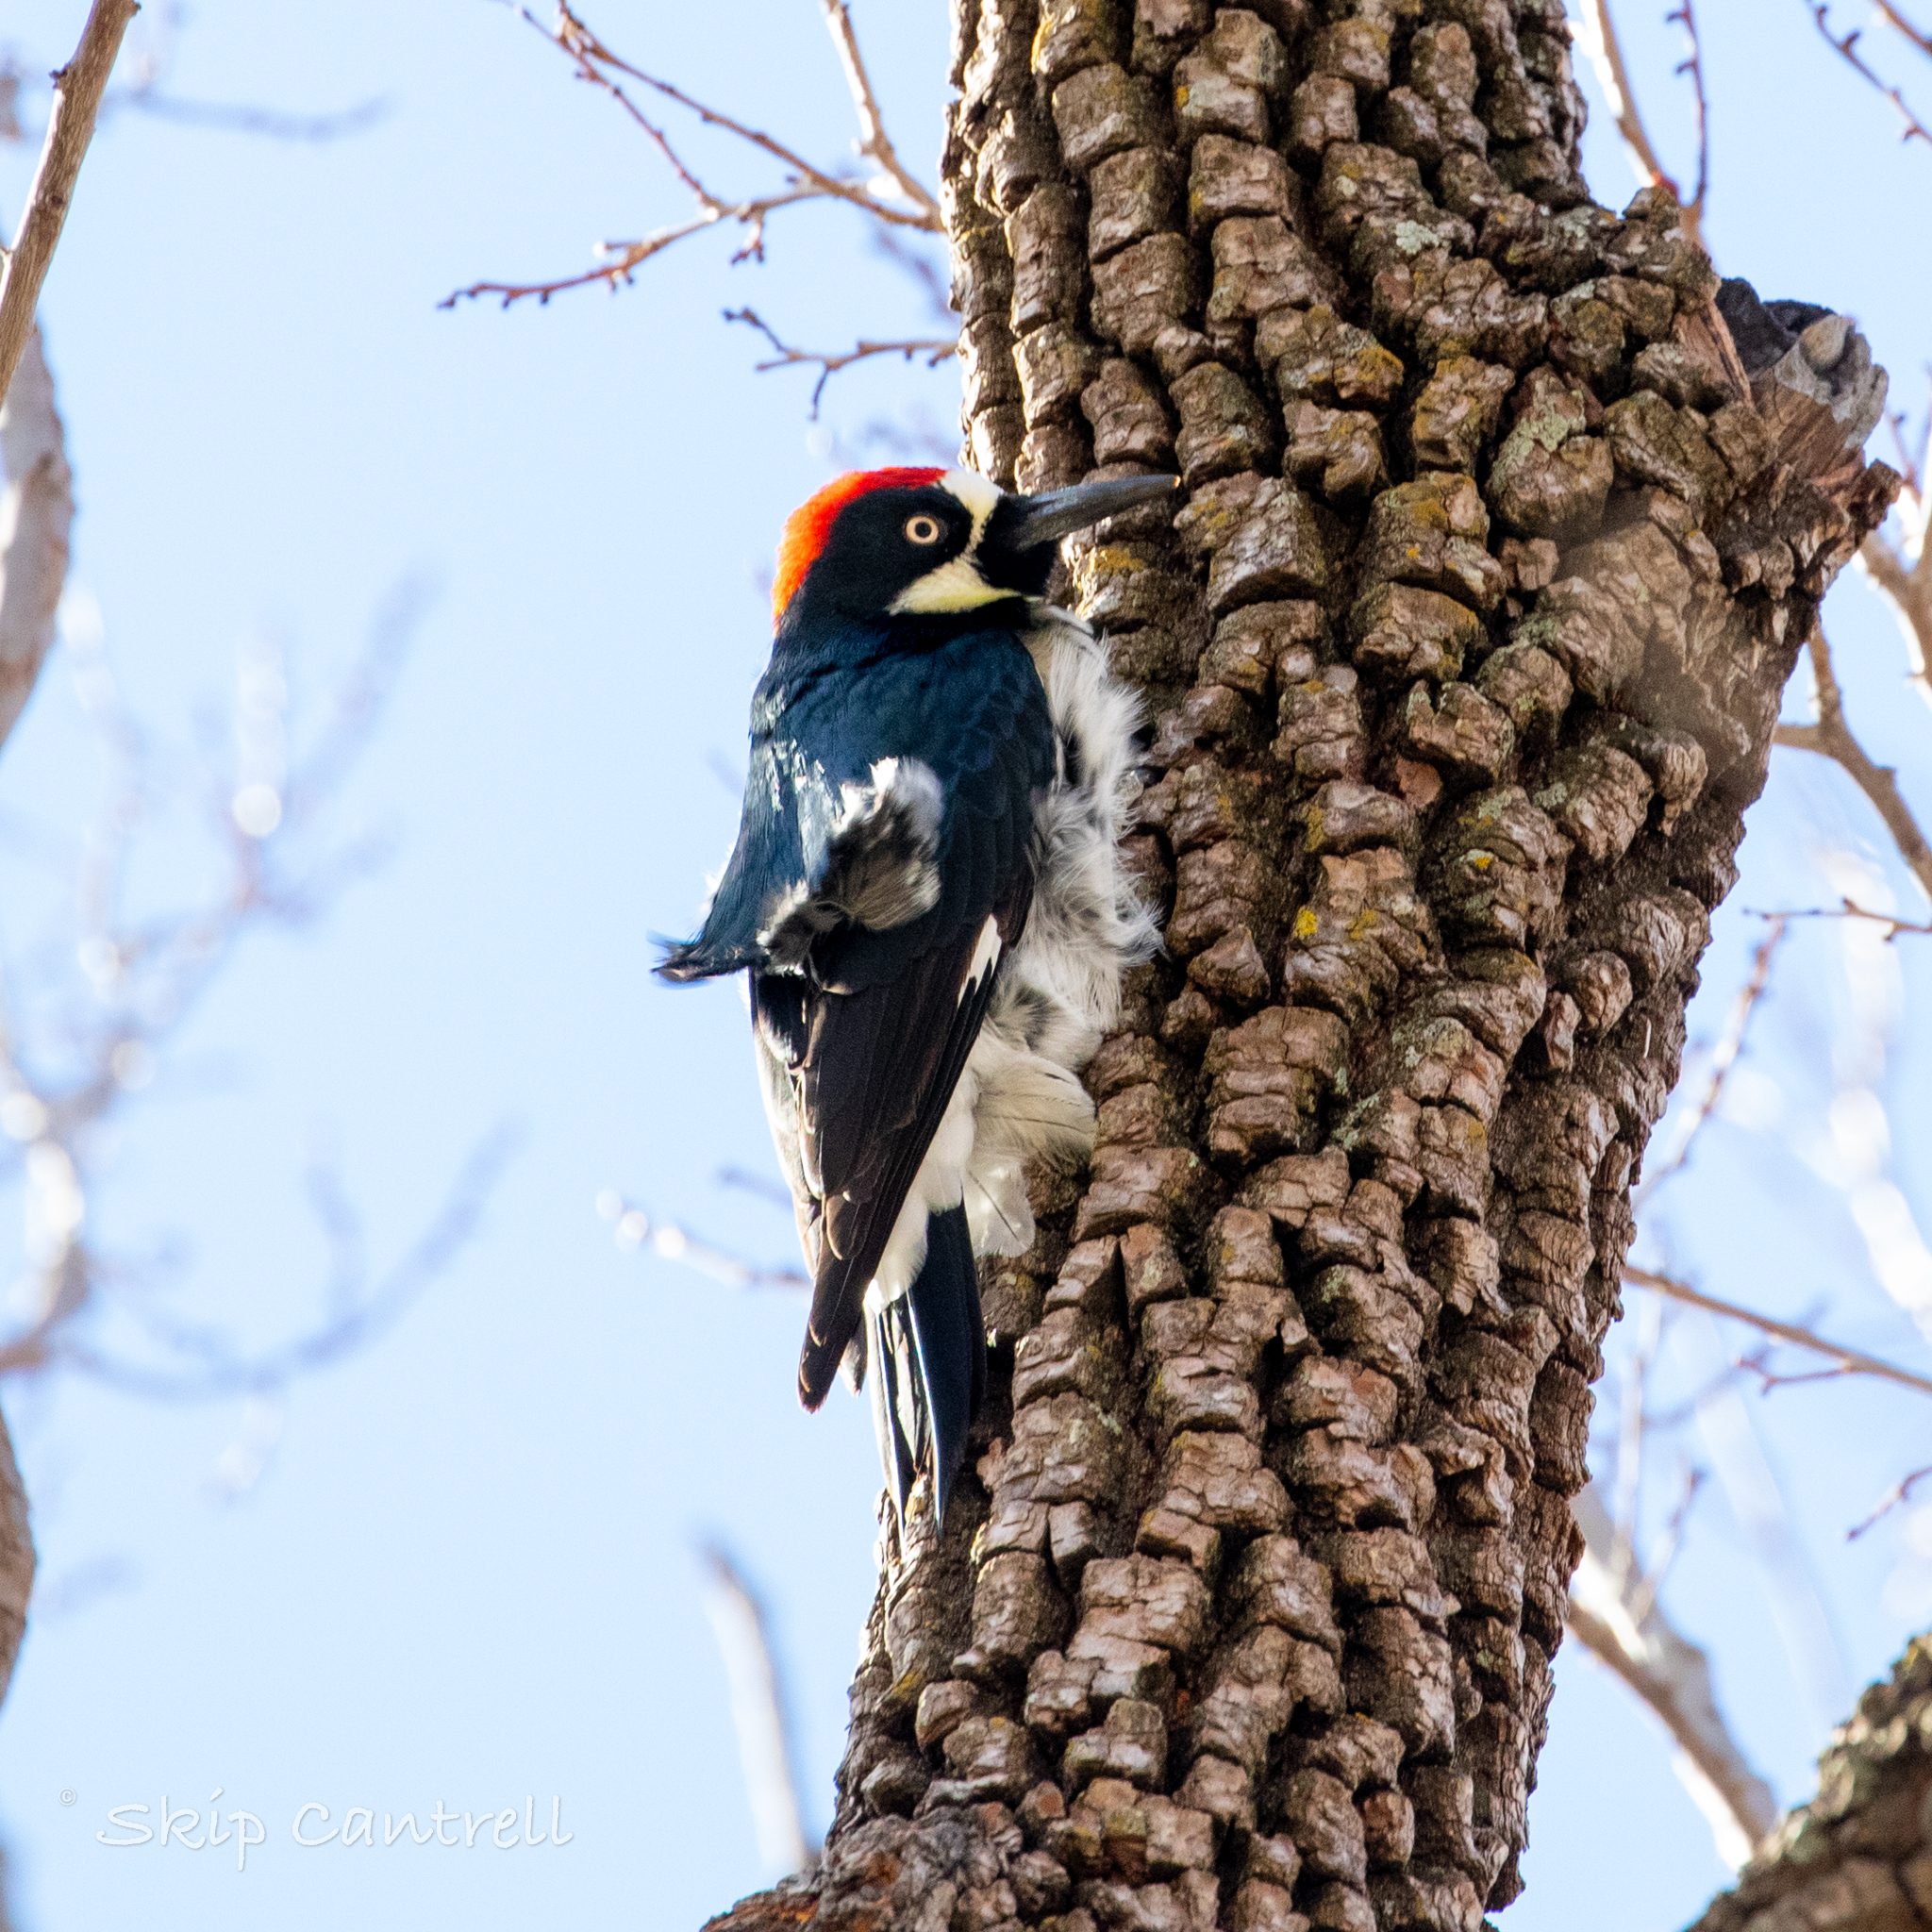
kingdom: Animalia
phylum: Chordata
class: Aves
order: Piciformes
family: Picidae
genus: Melanerpes
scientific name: Melanerpes formicivorus
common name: Acorn woodpecker
